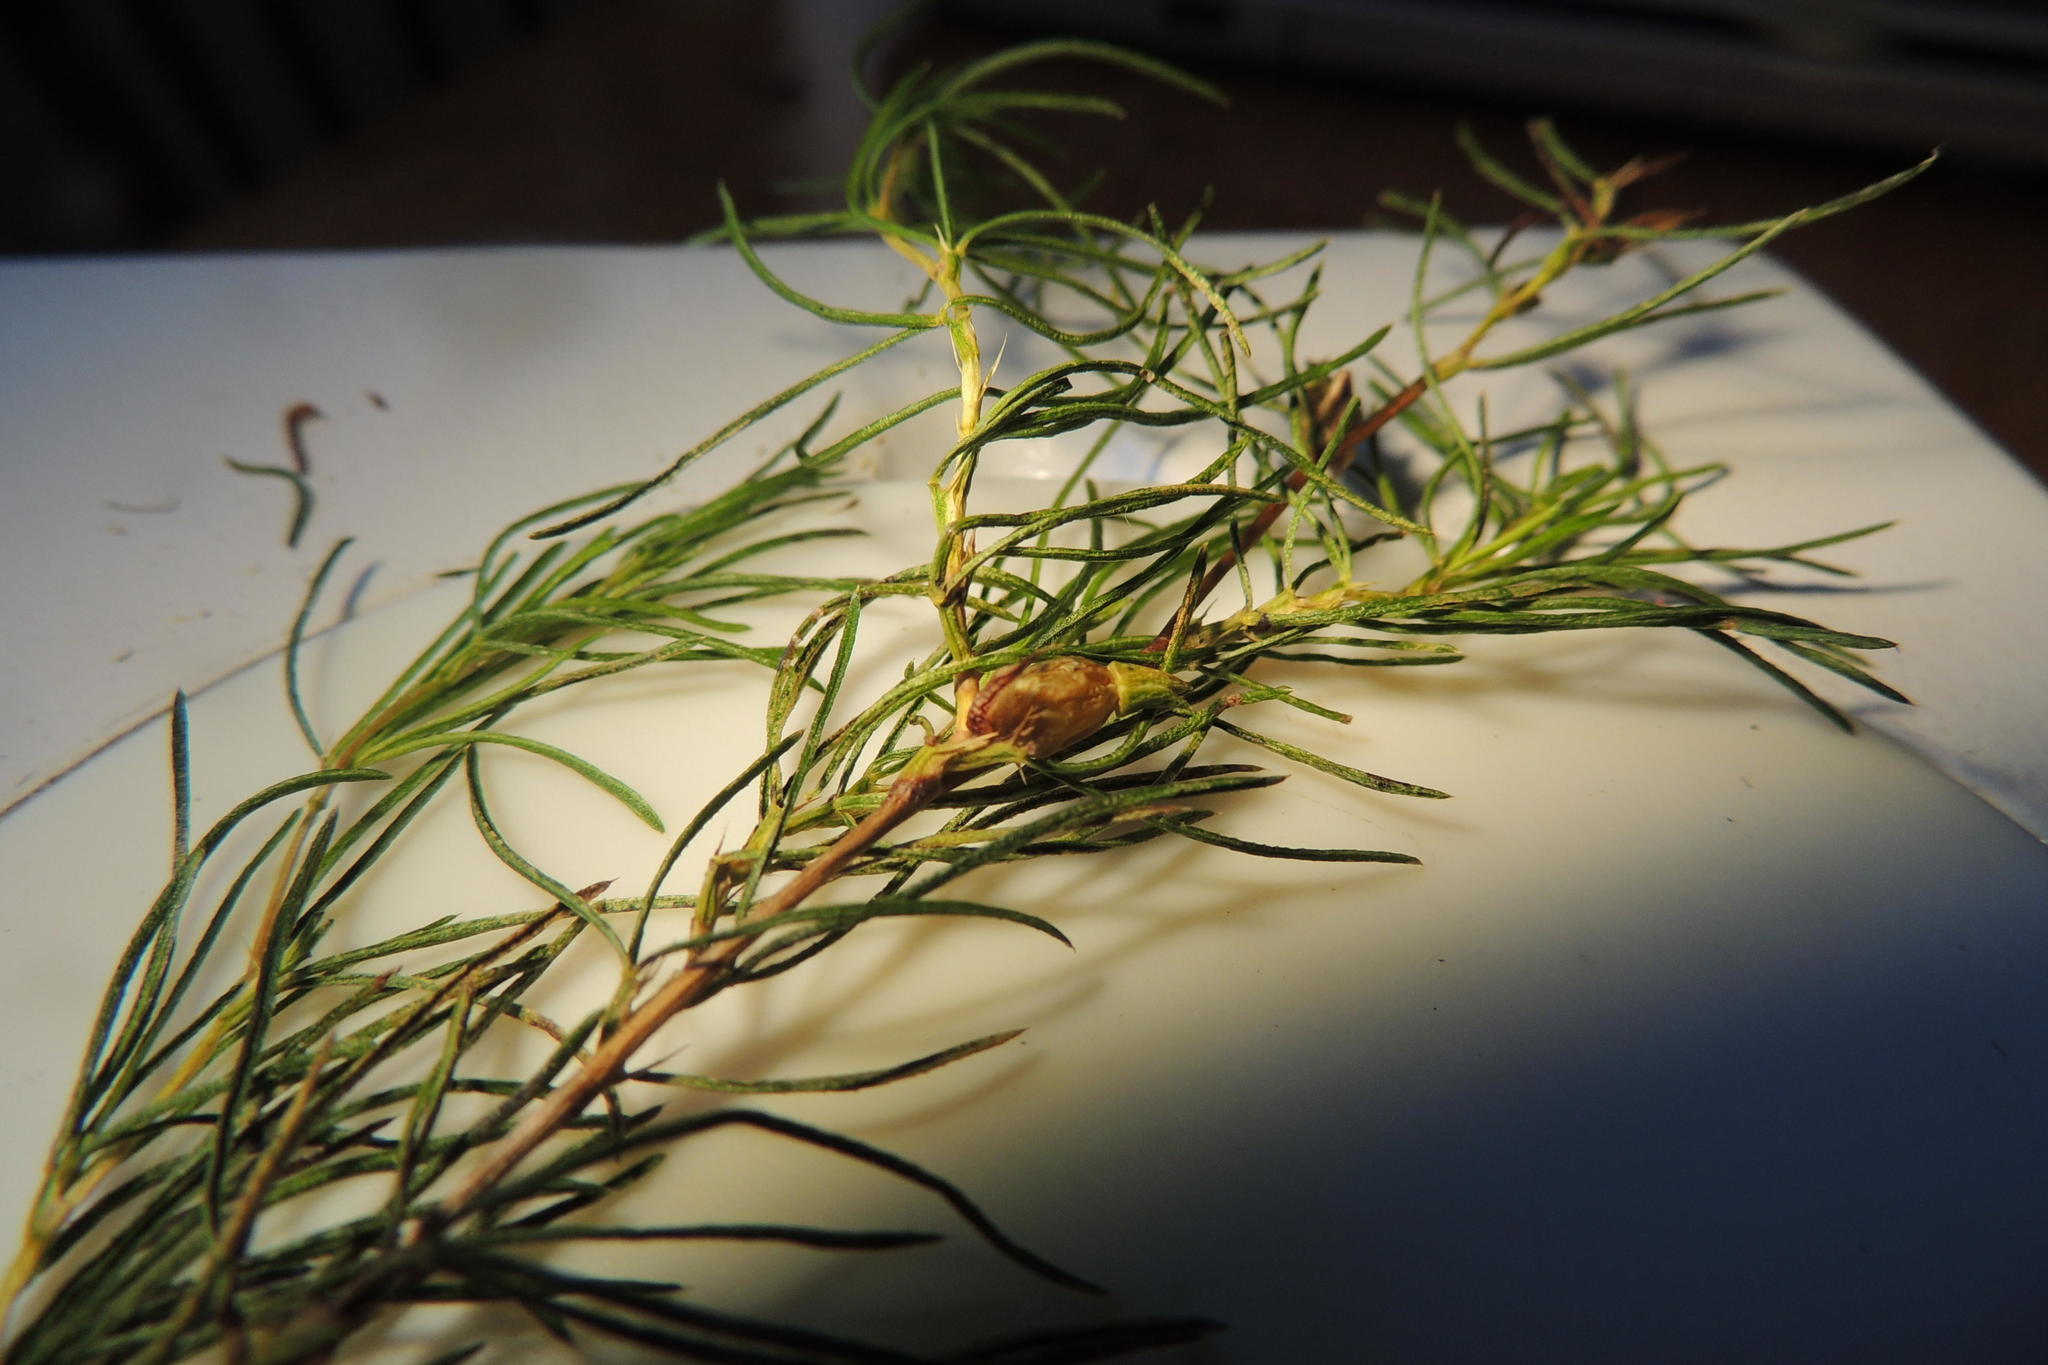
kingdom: Plantae
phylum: Tracheophyta
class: Magnoliopsida
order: Sapindales
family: Rutaceae
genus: Empleurum
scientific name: Empleurum unicapsulare
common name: False buchu
